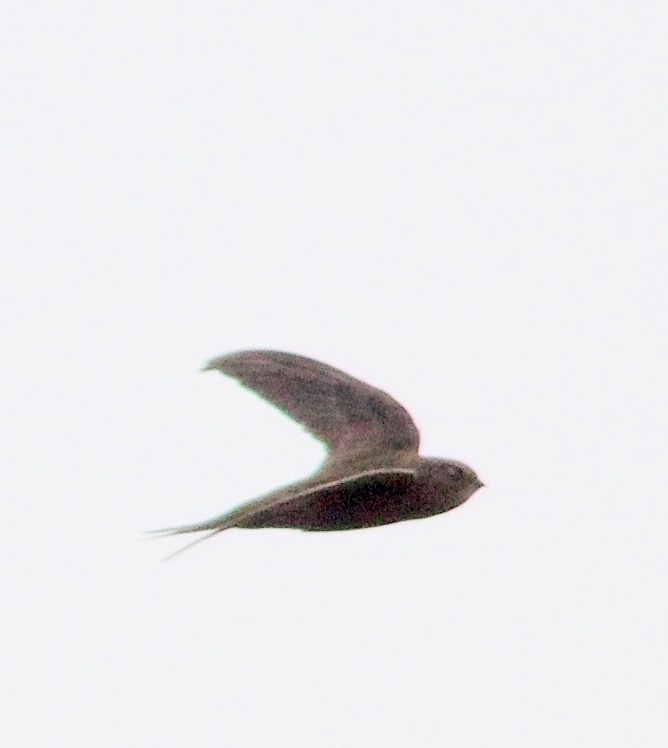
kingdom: Animalia
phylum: Chordata
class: Aves
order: Apodiformes
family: Apodidae
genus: Apus
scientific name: Apus pallidus
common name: Pallid swift
